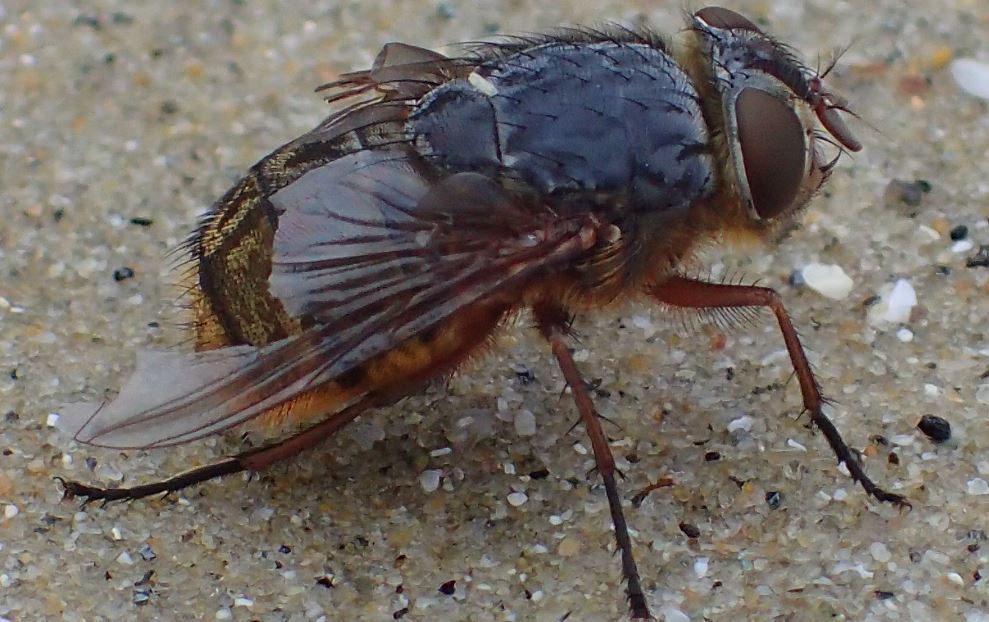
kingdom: Animalia
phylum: Arthropoda
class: Insecta
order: Diptera
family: Calliphoridae
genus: Calliphora
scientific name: Calliphora stygia
